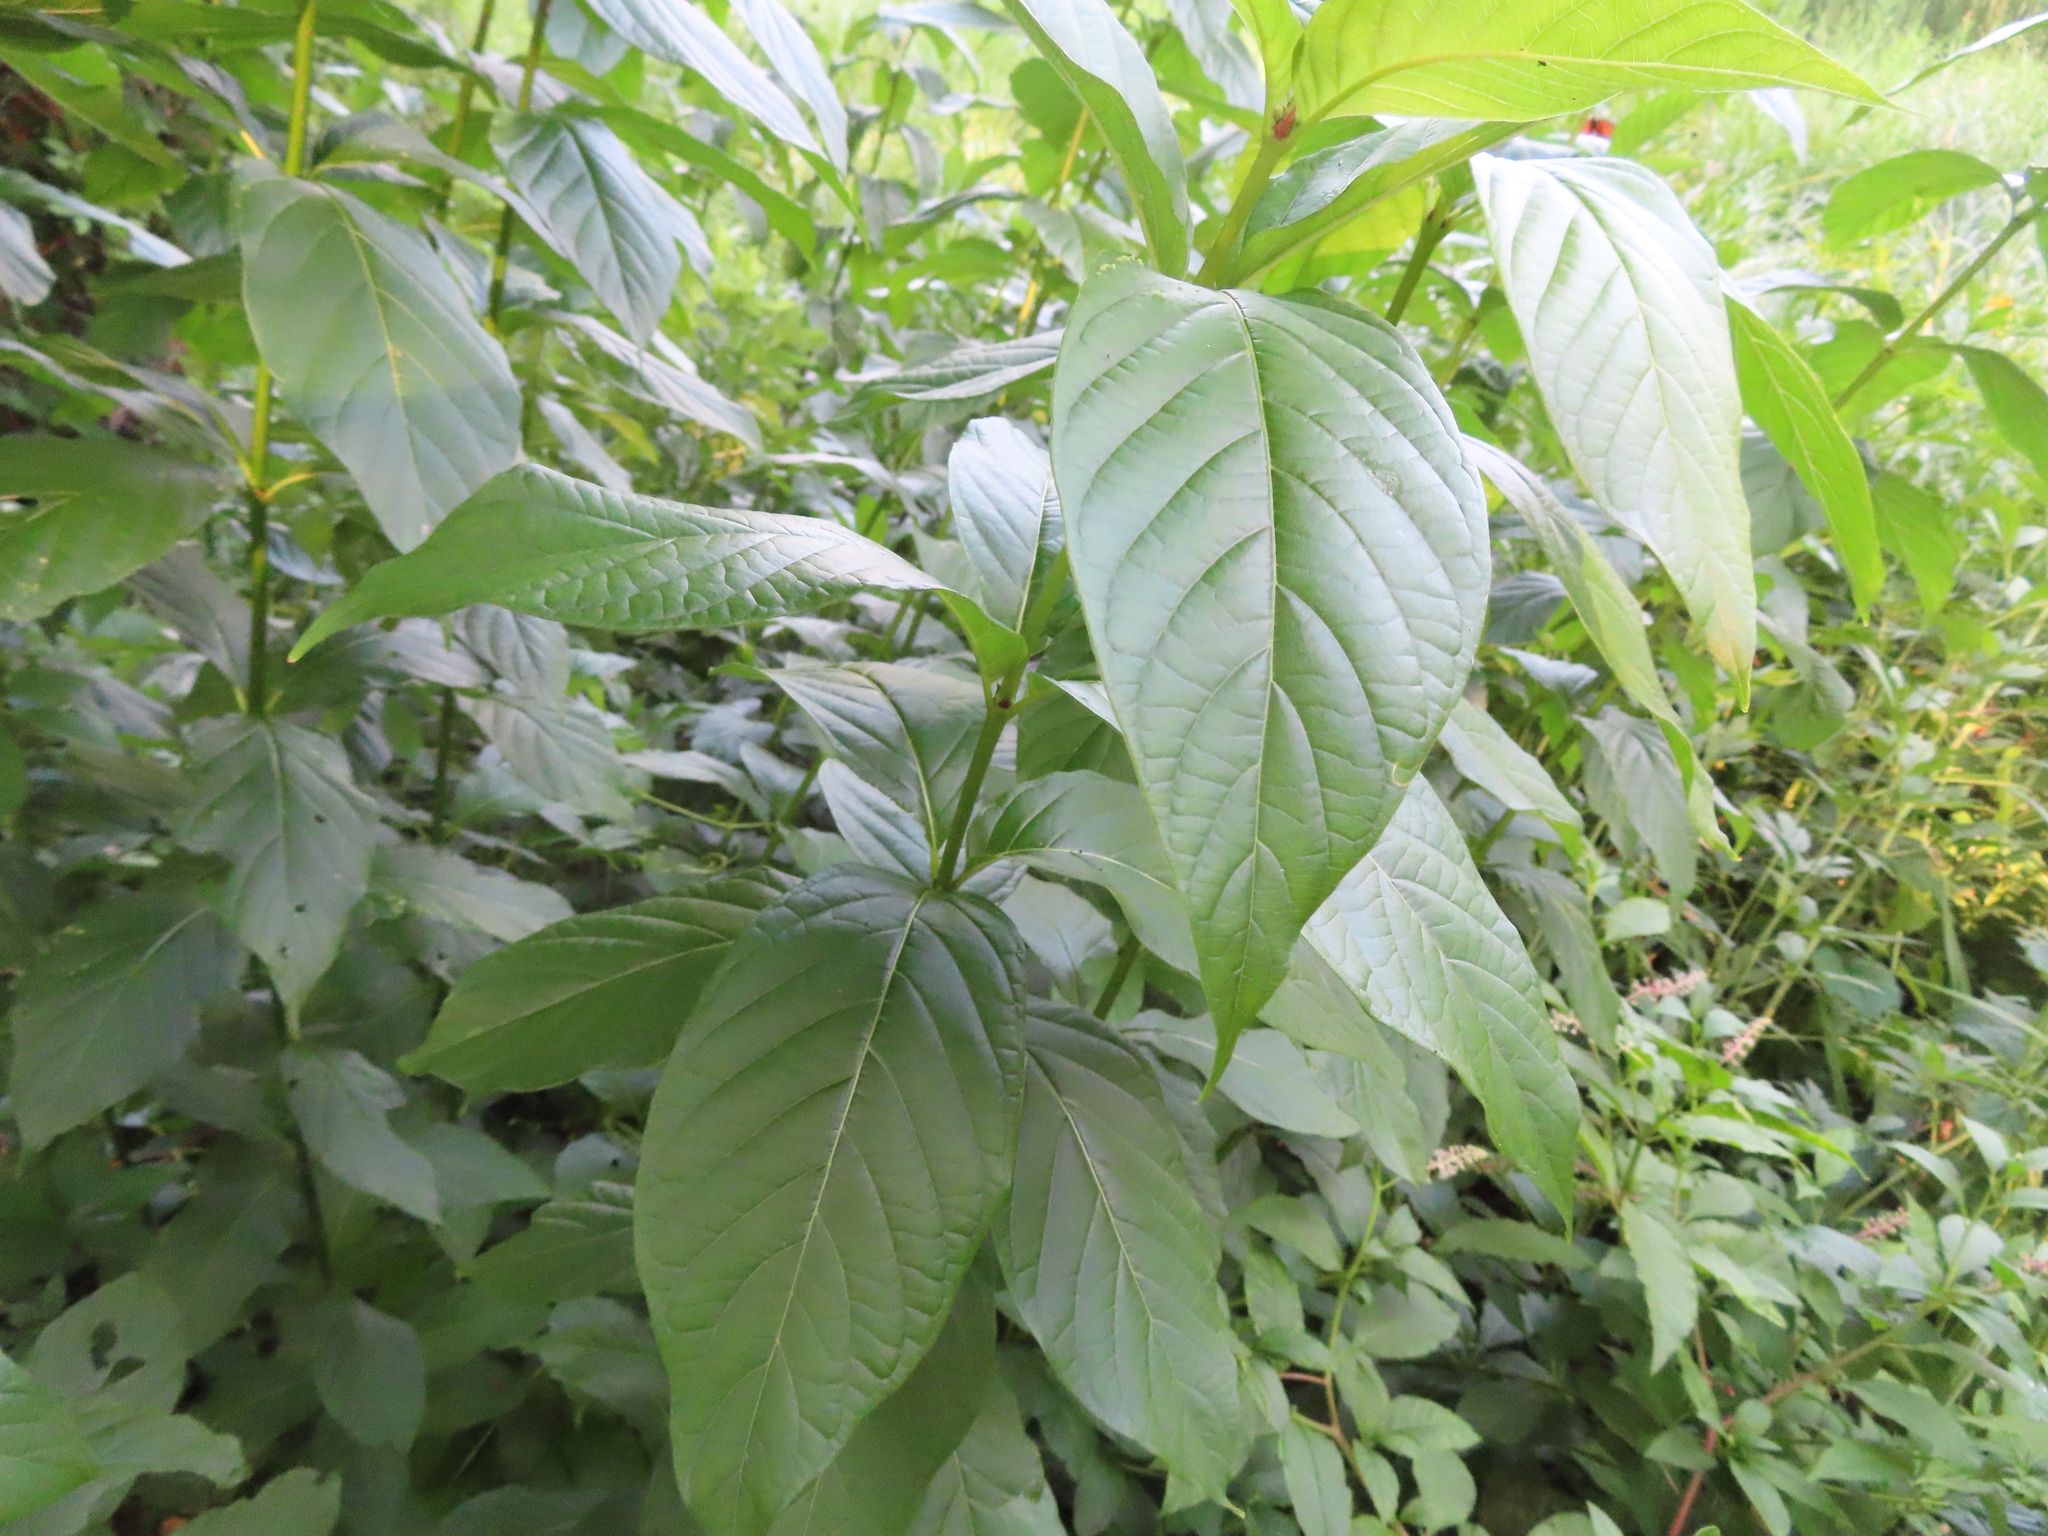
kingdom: Plantae
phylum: Tracheophyta
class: Magnoliopsida
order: Gentianales
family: Rubiaceae
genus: Cephalanthus
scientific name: Cephalanthus occidentalis
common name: Button-willow
